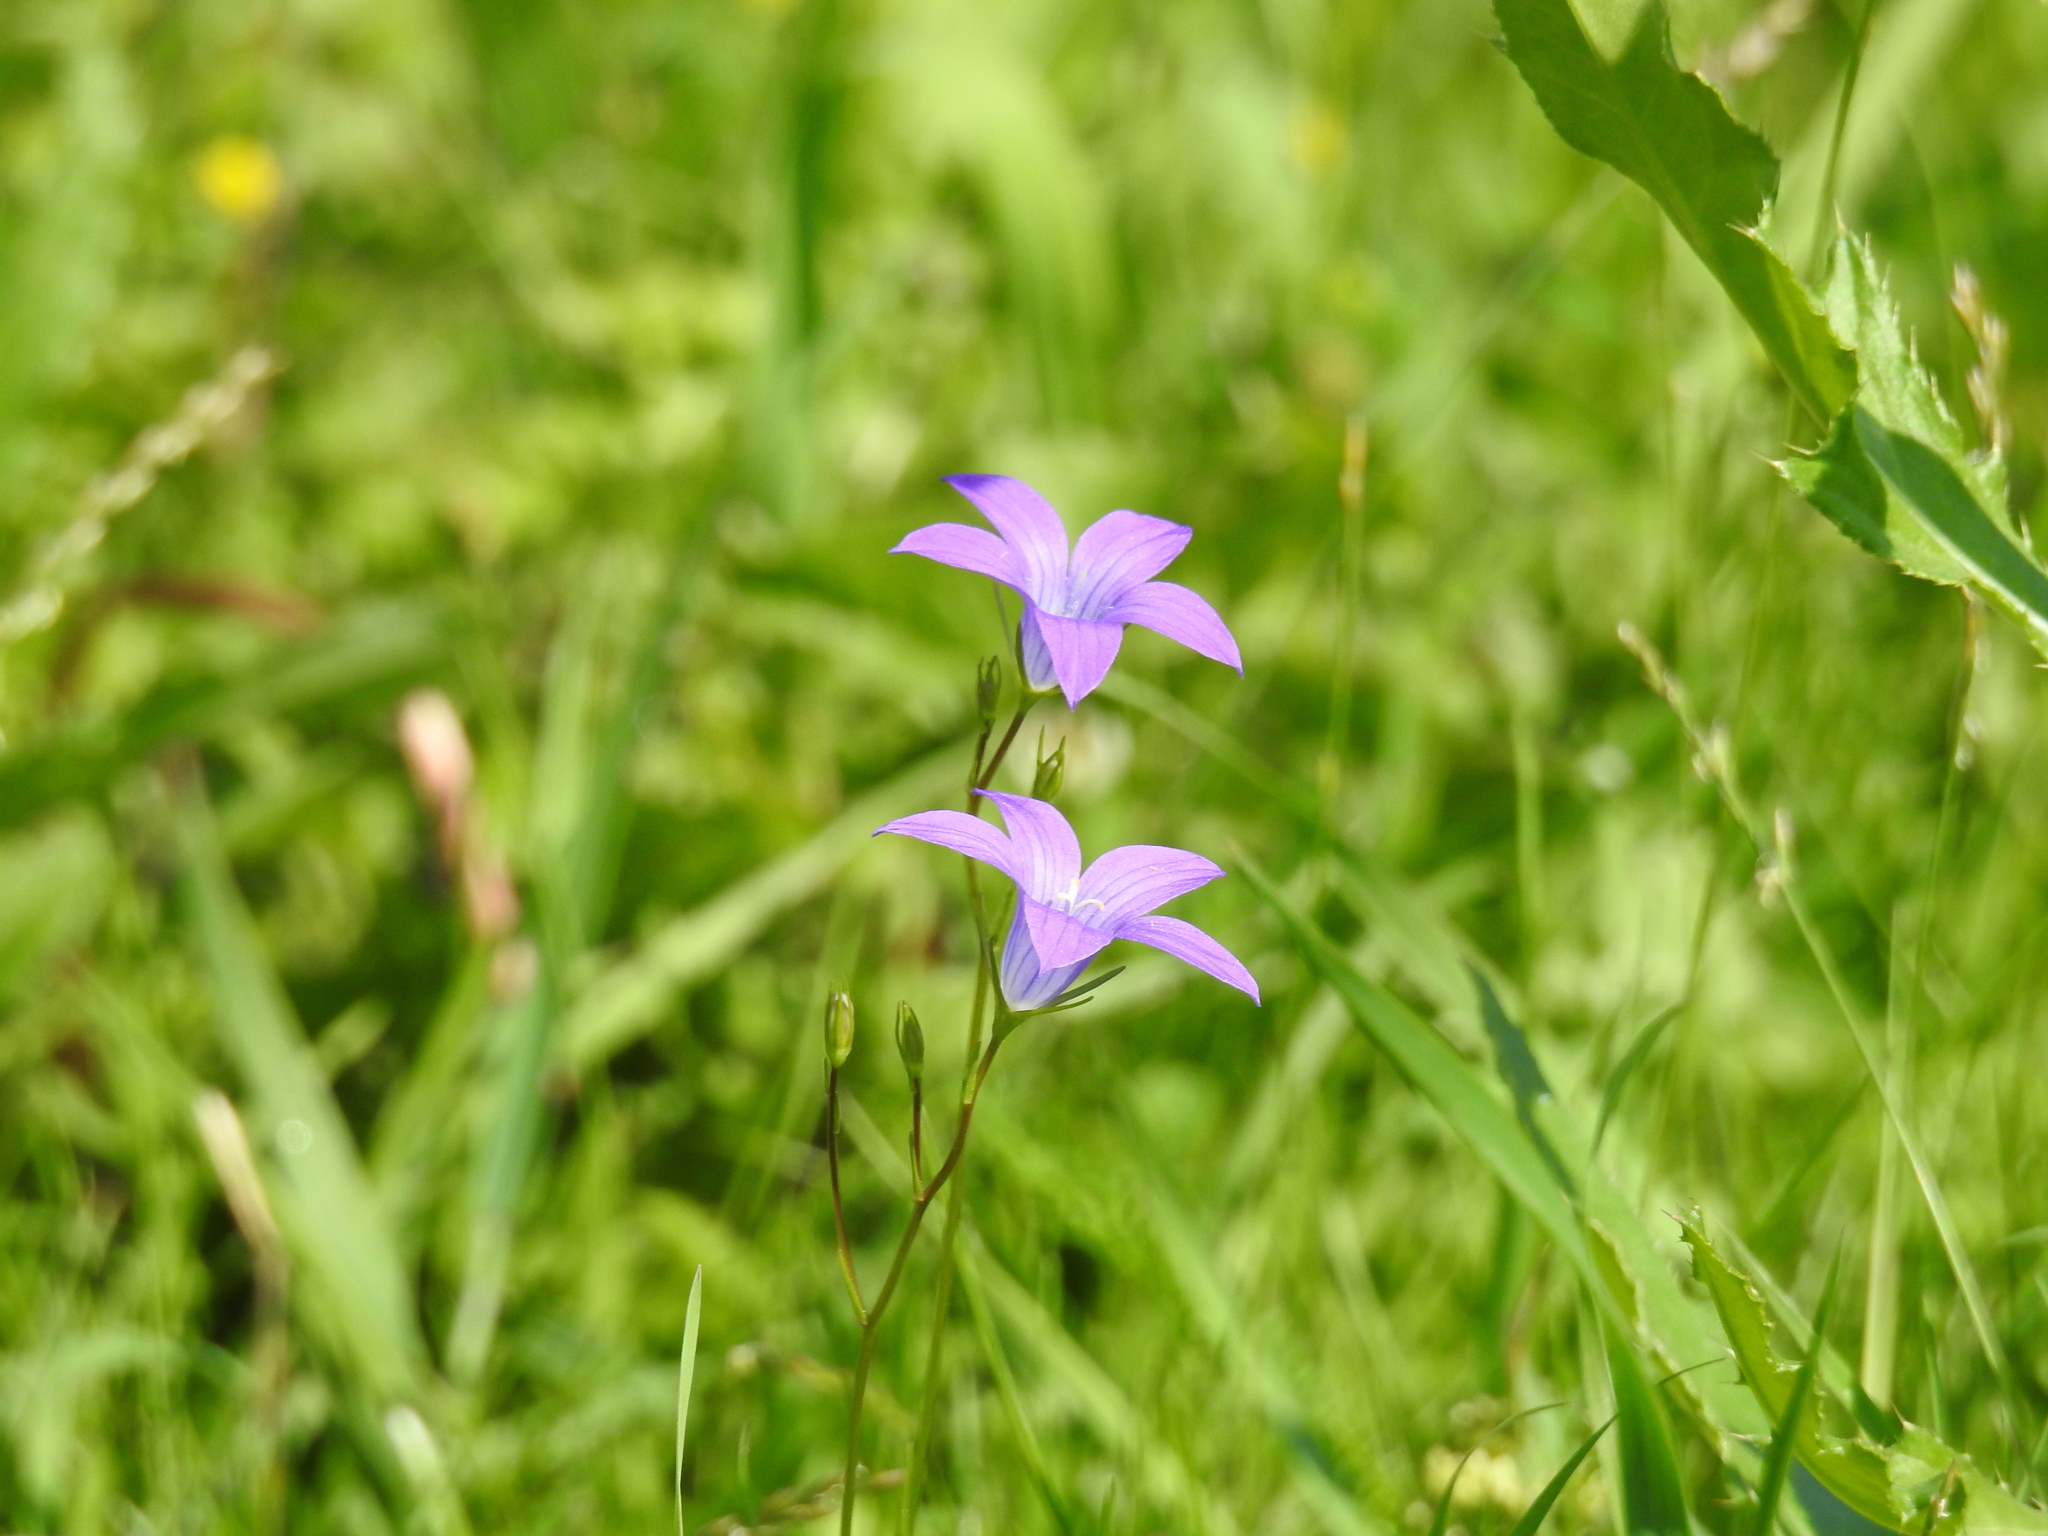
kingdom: Plantae
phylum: Tracheophyta
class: Magnoliopsida
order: Asterales
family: Campanulaceae
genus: Campanula
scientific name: Campanula patula
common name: Spreading bellflower
